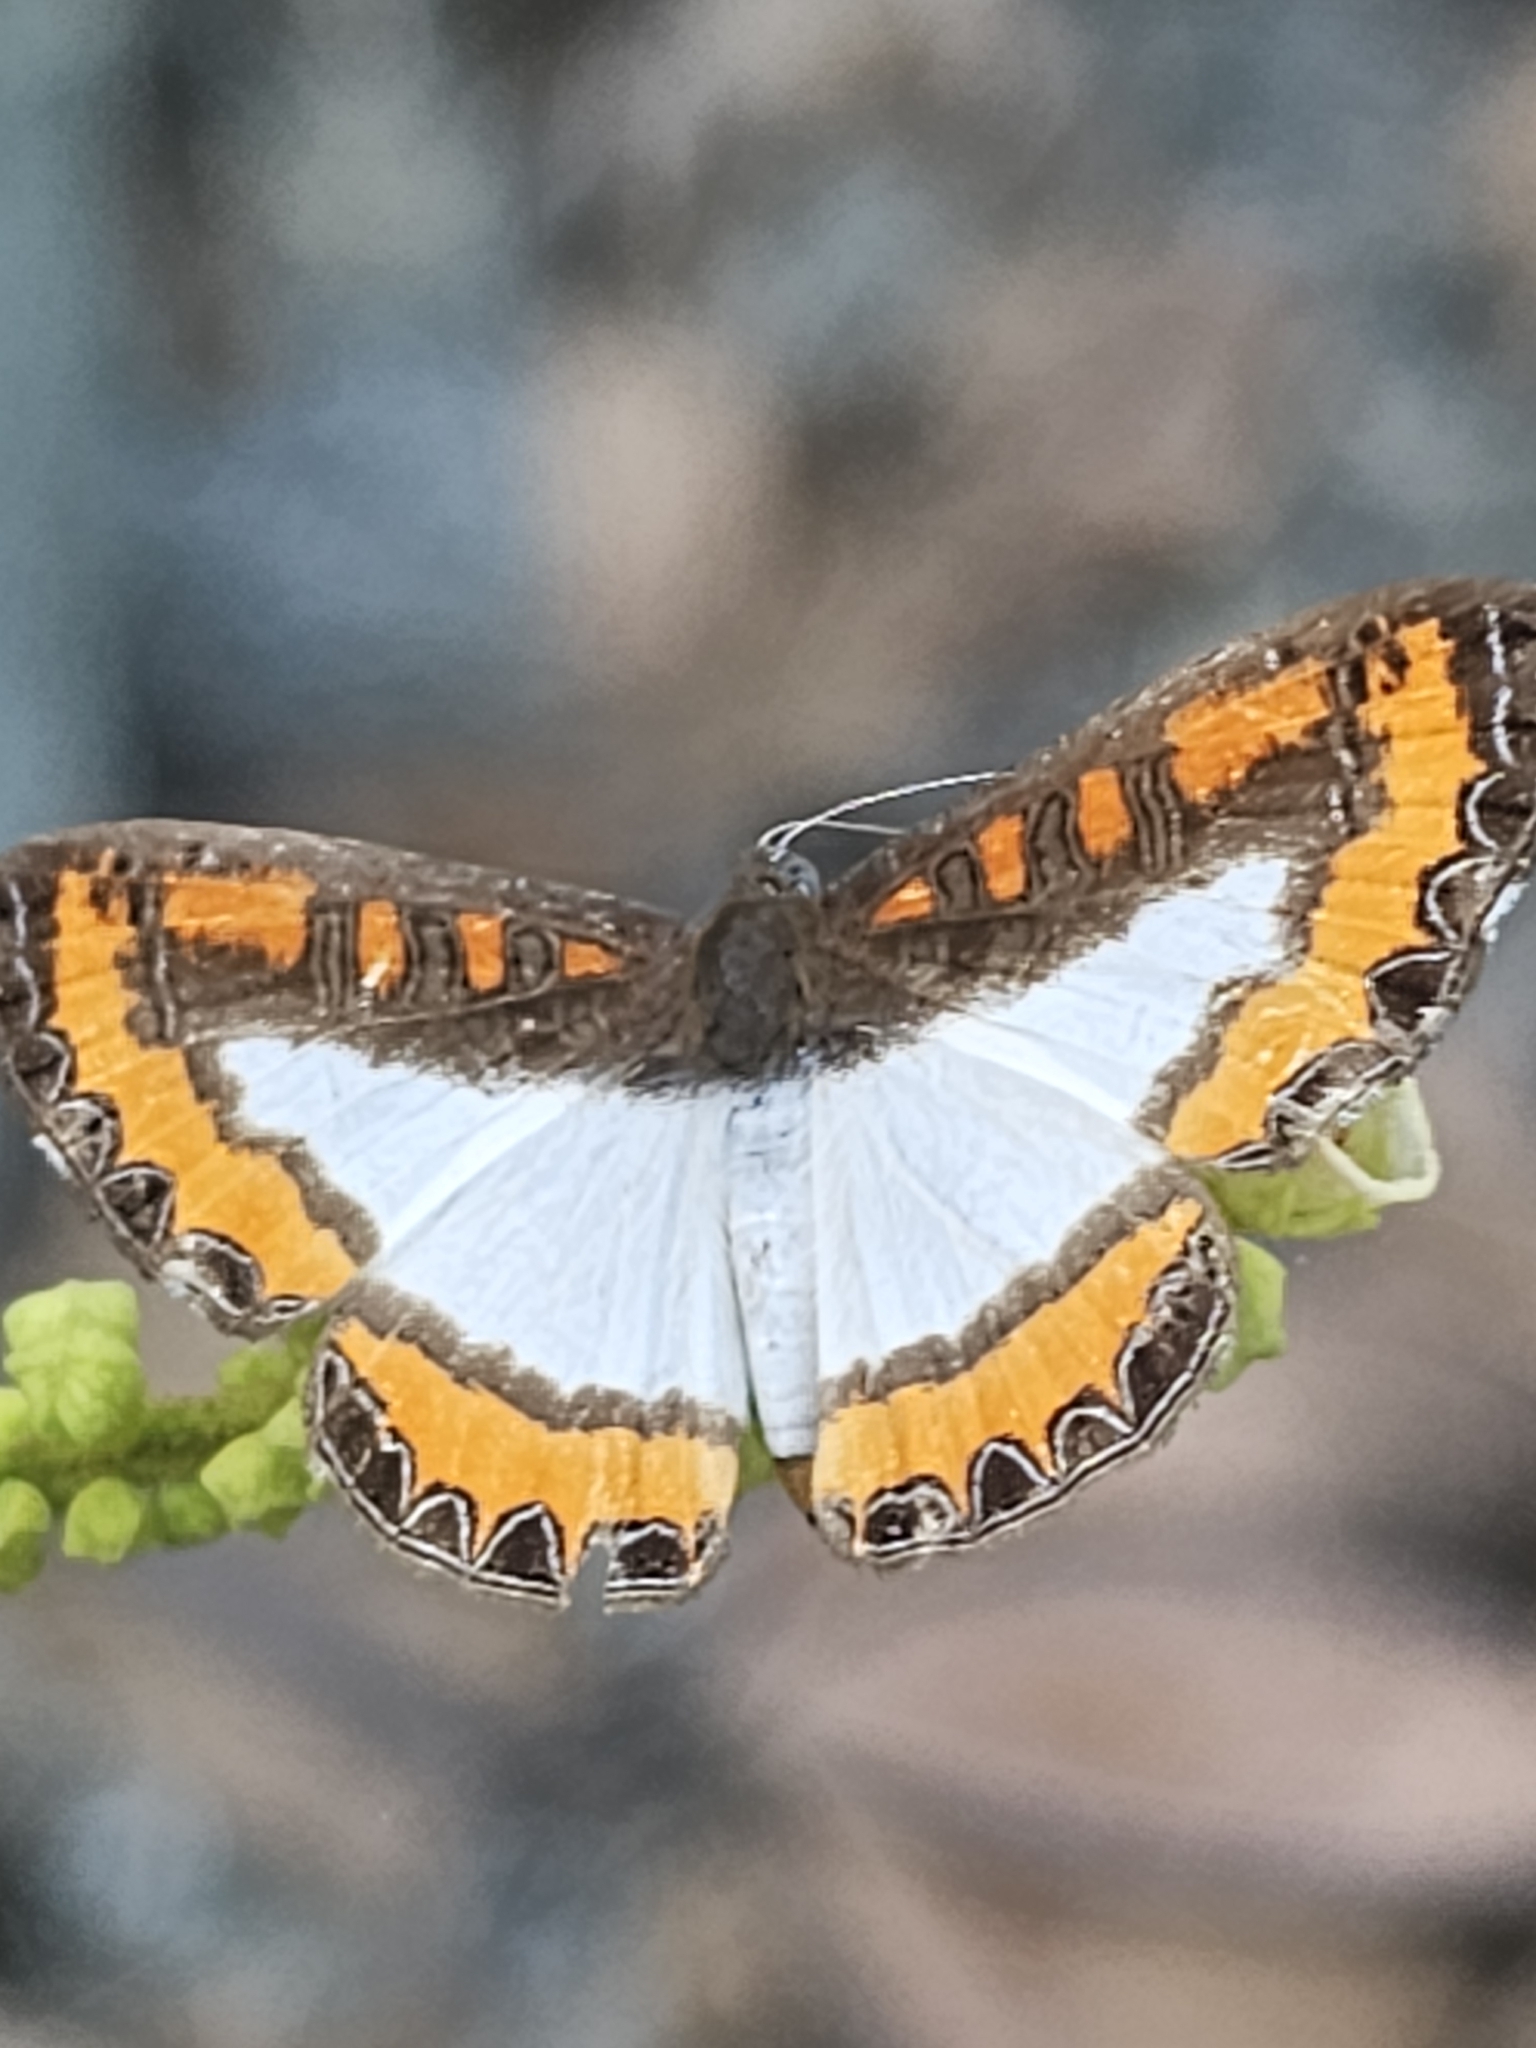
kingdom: Animalia
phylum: Arthropoda
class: Insecta
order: Lepidoptera
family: Riodinidae
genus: Nymula
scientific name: Nymula calyce
